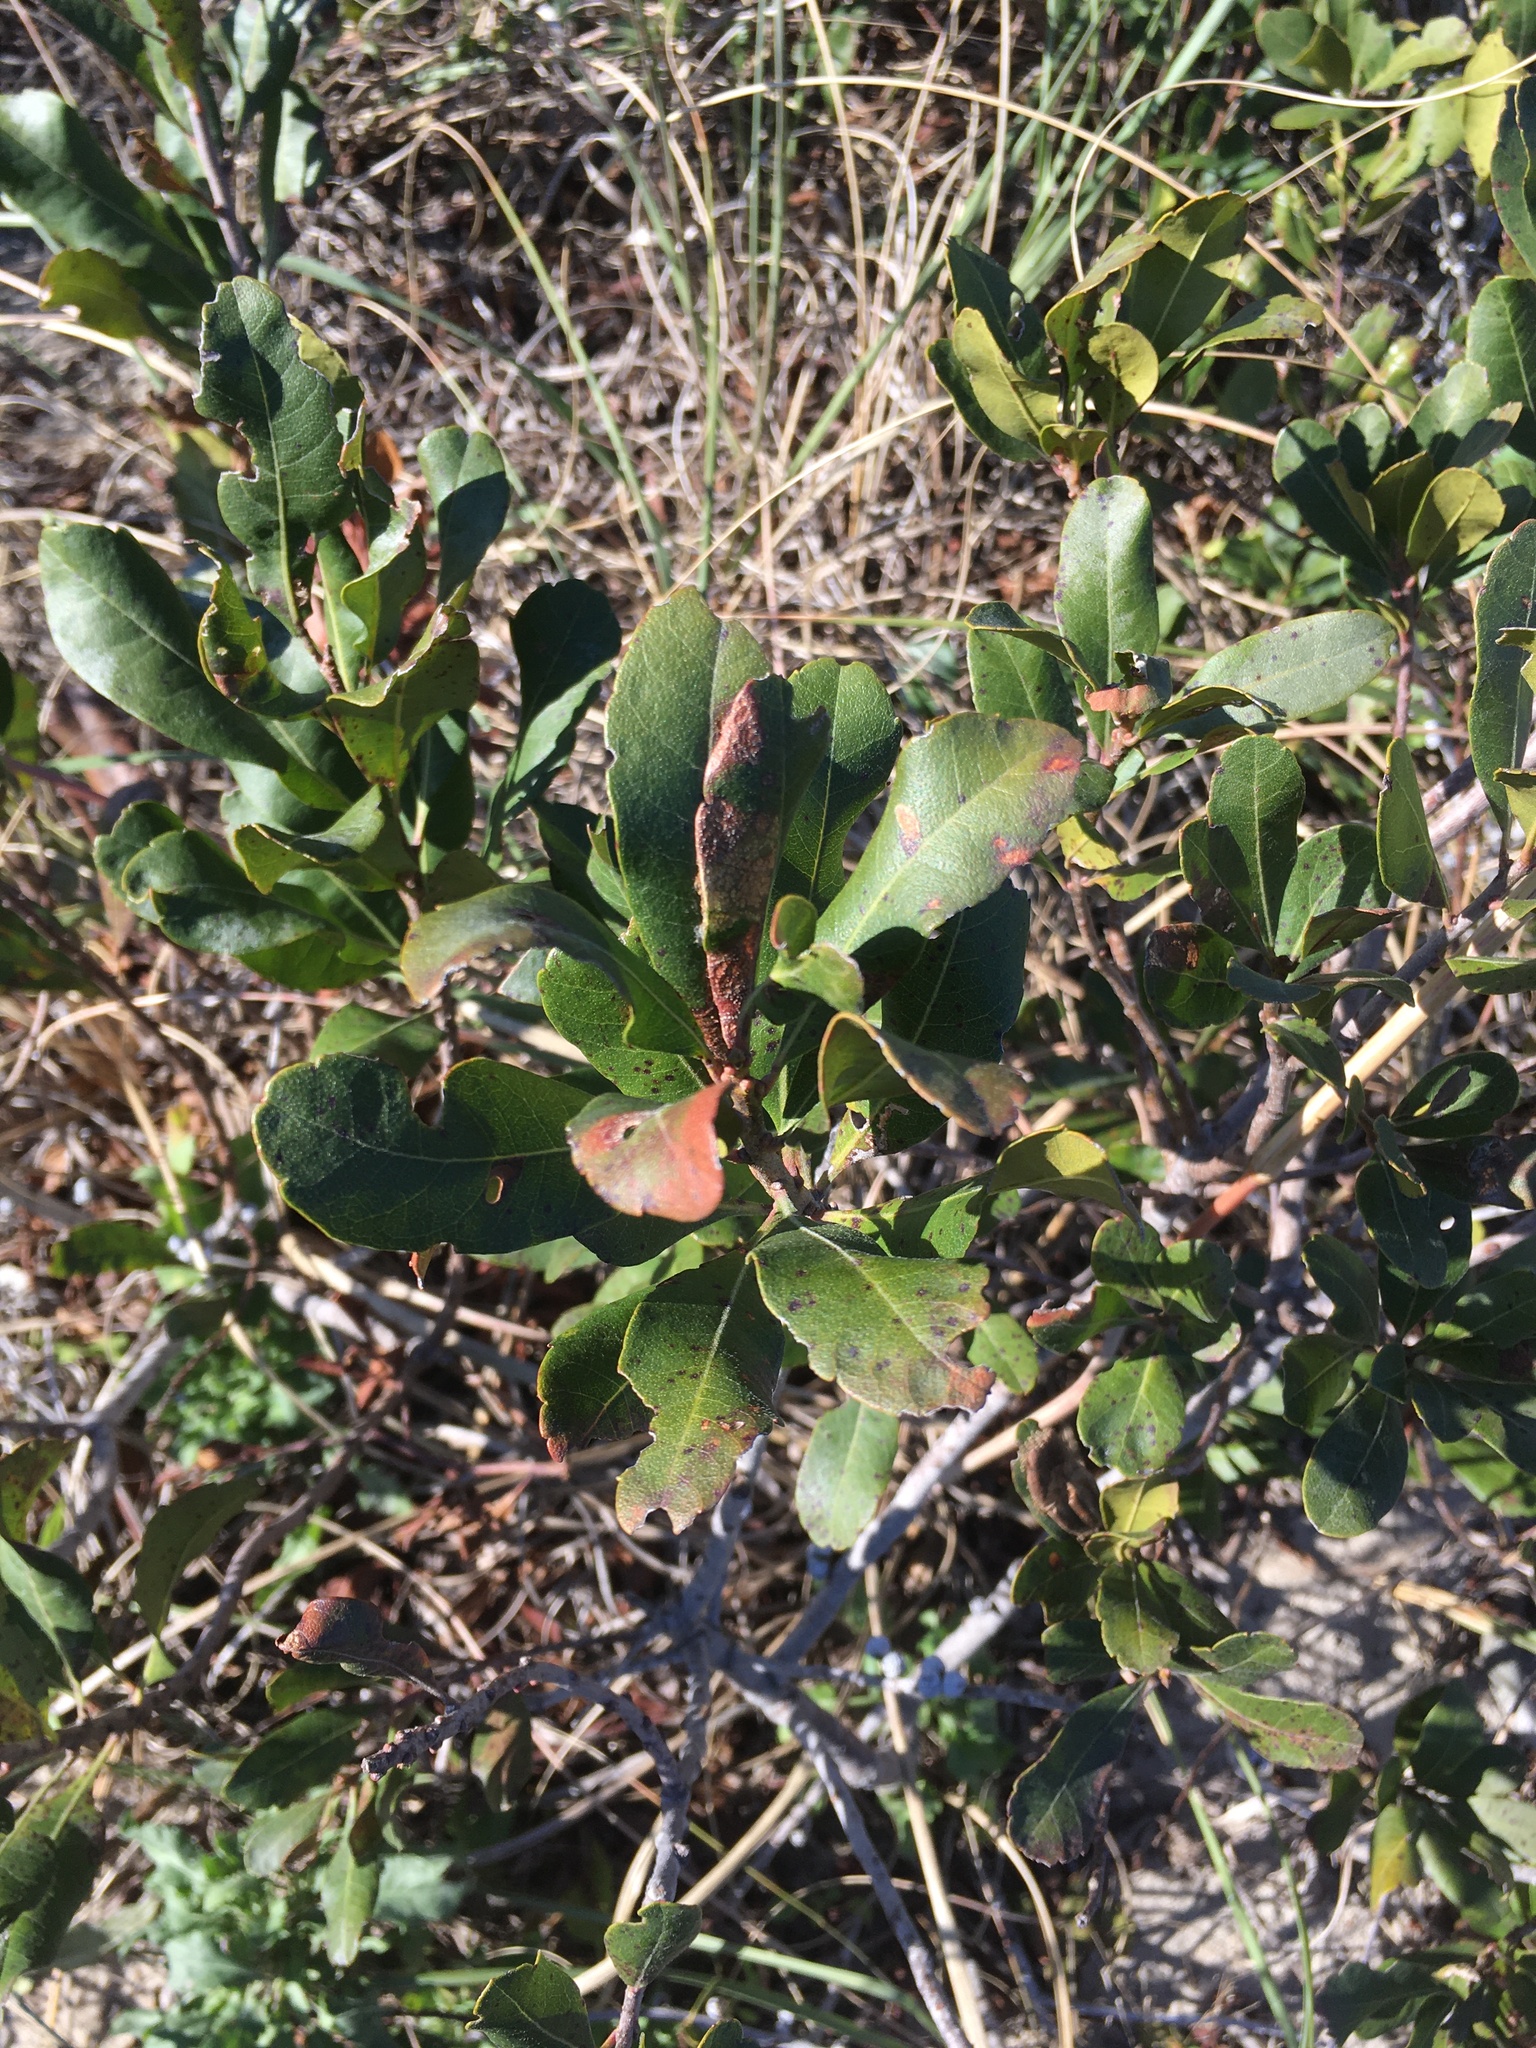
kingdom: Plantae
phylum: Tracheophyta
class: Magnoliopsida
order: Fagales
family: Myricaceae
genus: Morella
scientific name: Morella pensylvanica
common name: Northern bayberry
